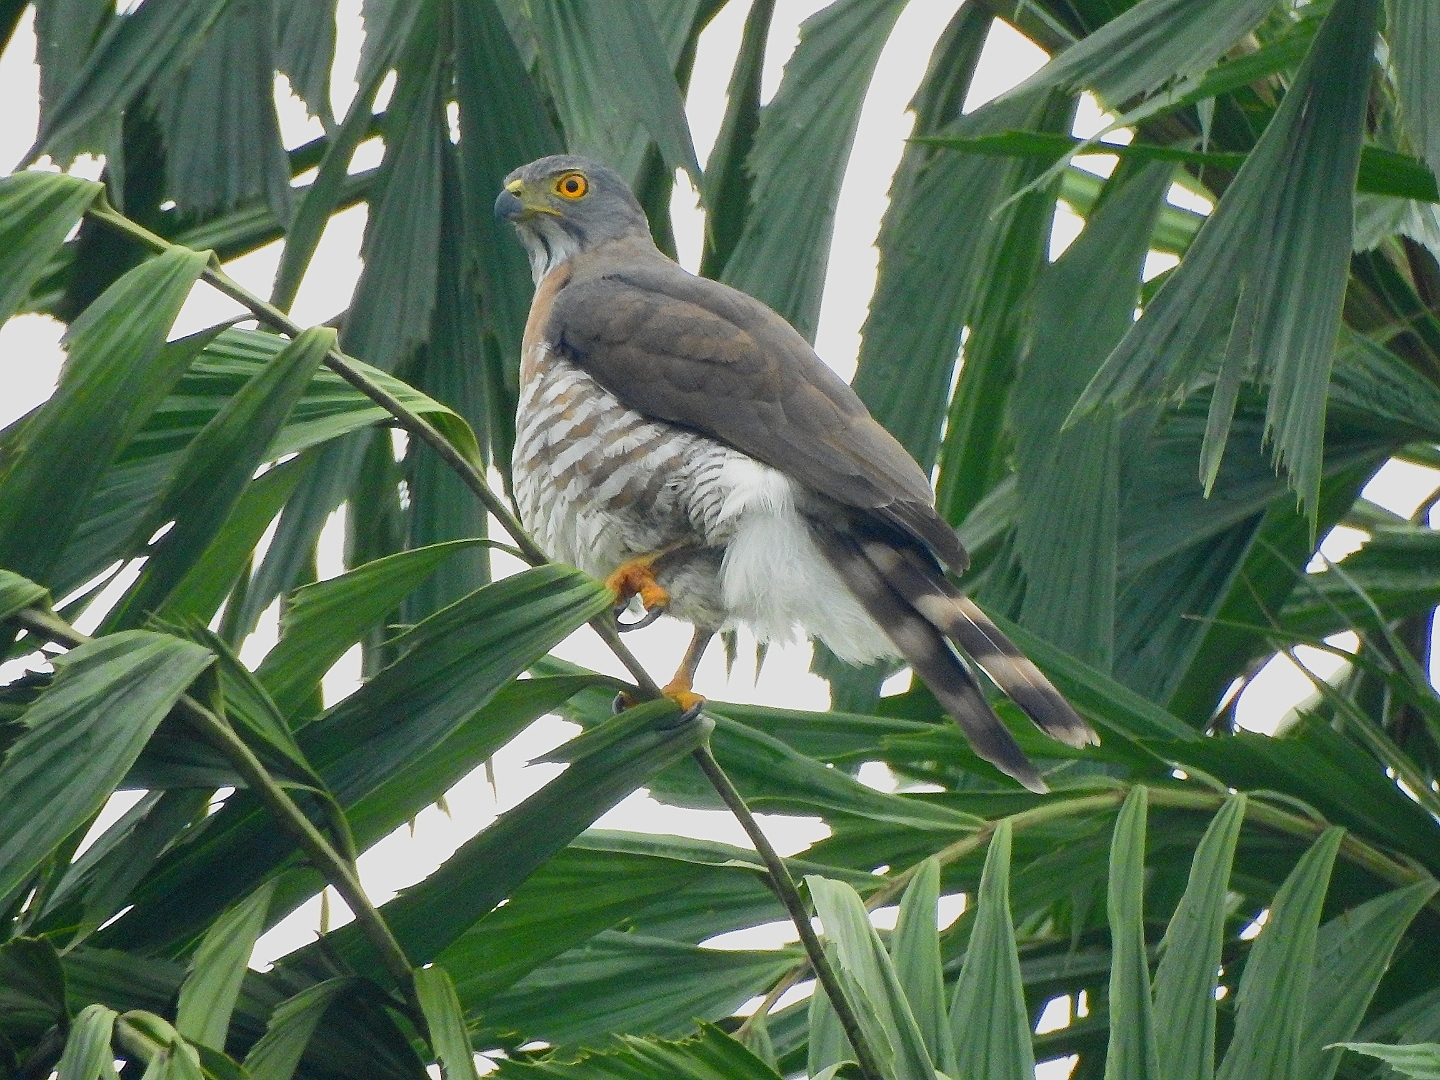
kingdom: Animalia
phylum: Chordata
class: Aves
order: Accipitriformes
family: Accipitridae
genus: Accipiter
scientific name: Accipiter trivirgatus
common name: Crested goshawk
